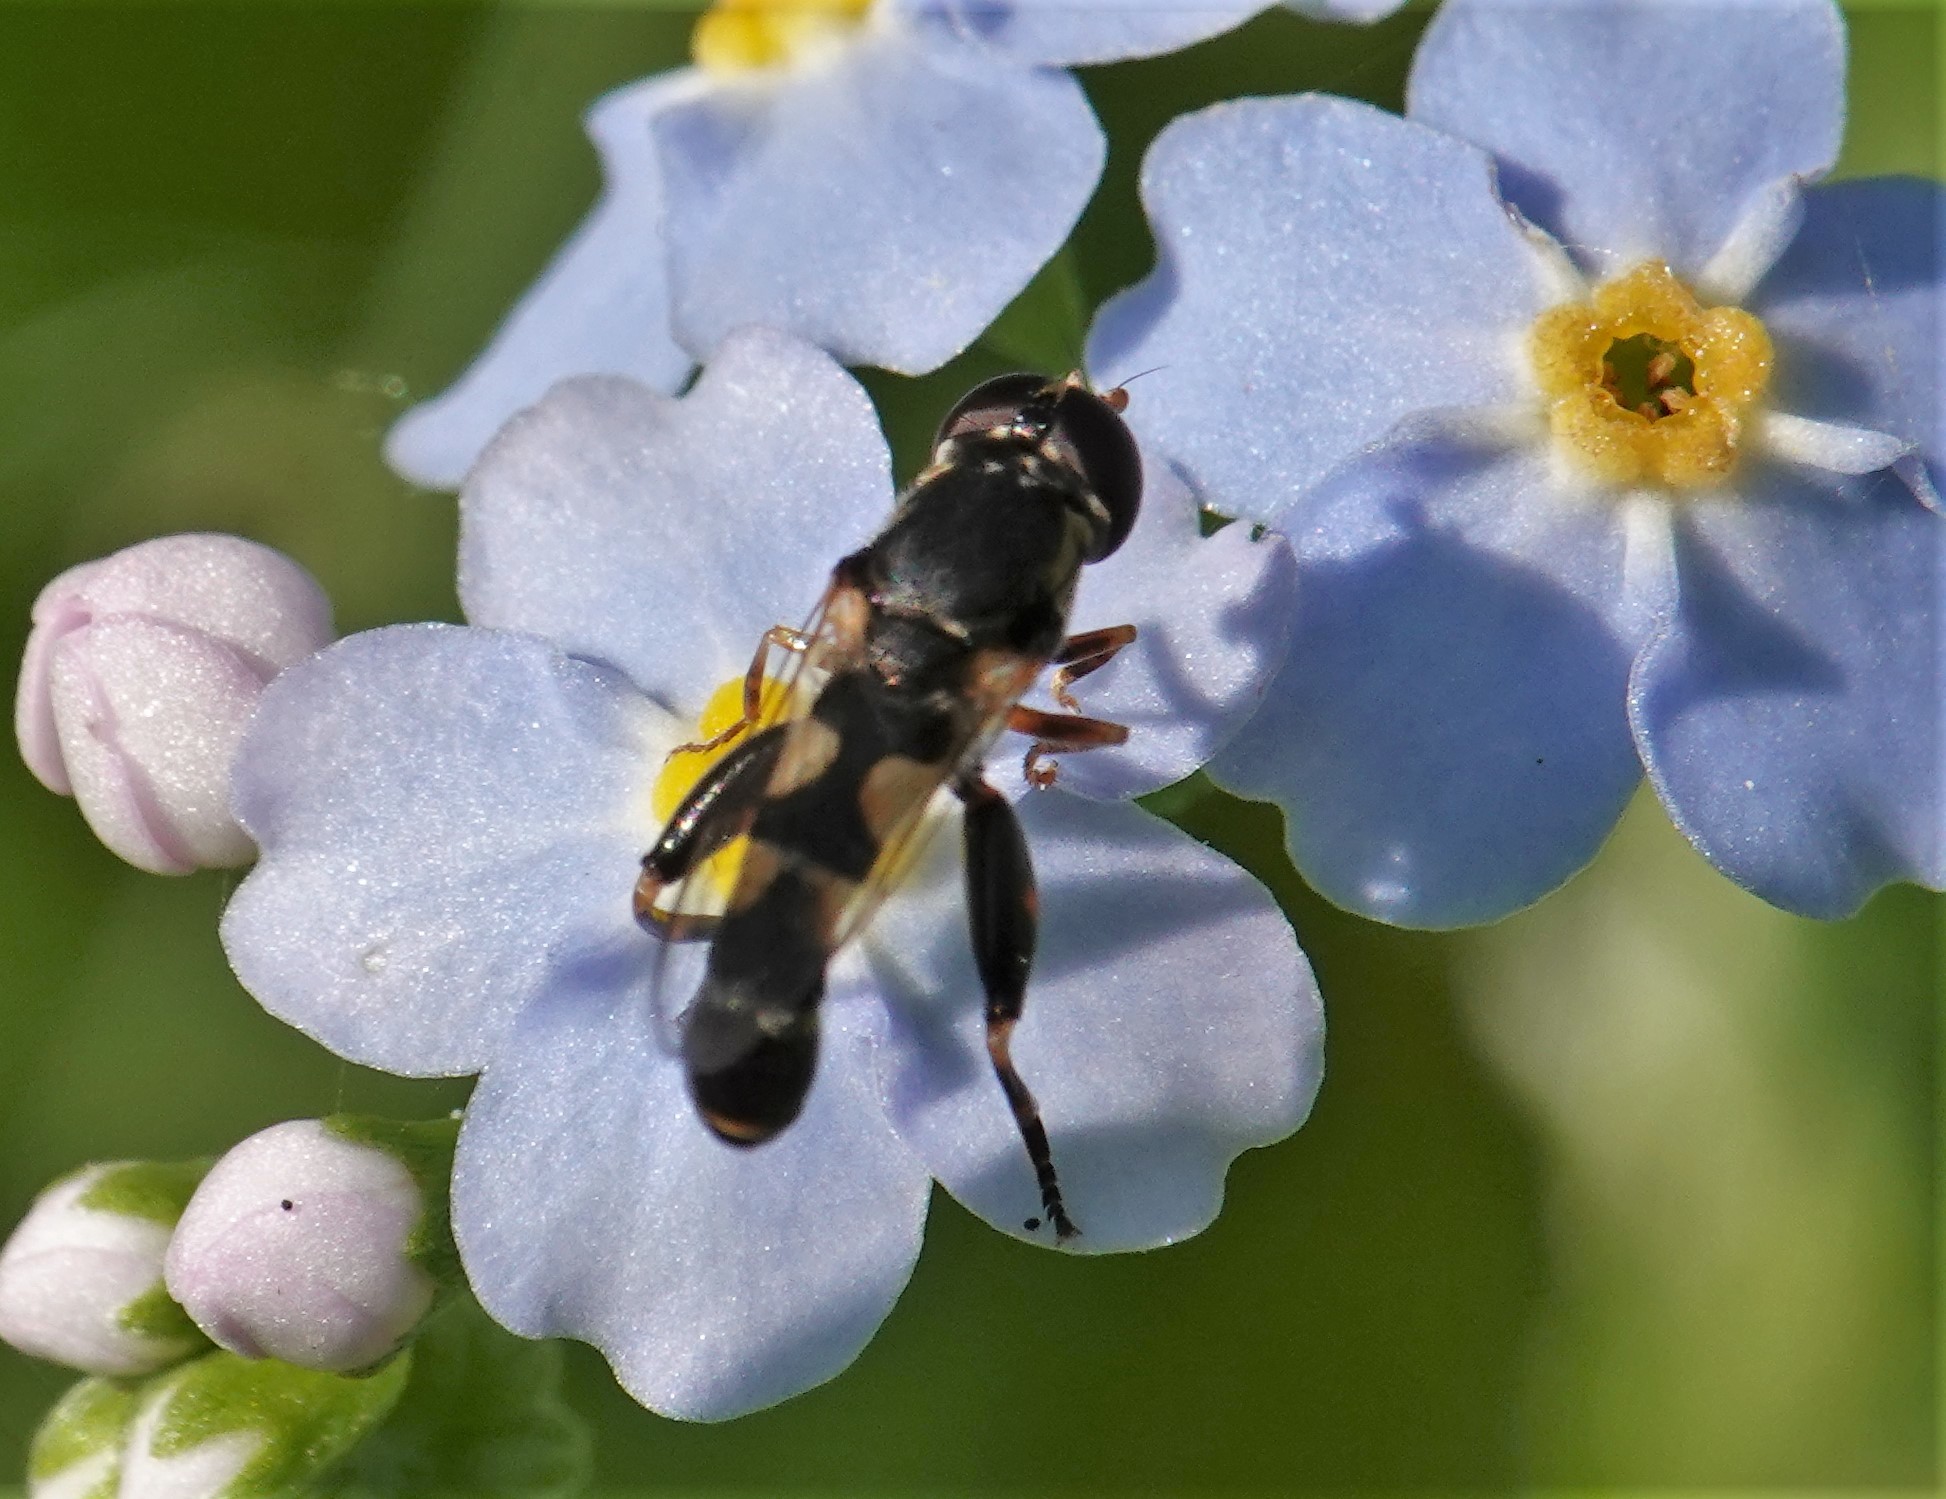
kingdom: Animalia
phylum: Arthropoda
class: Insecta
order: Diptera
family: Syrphidae
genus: Syritta
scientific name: Syritta pipiens
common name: Hover fly
